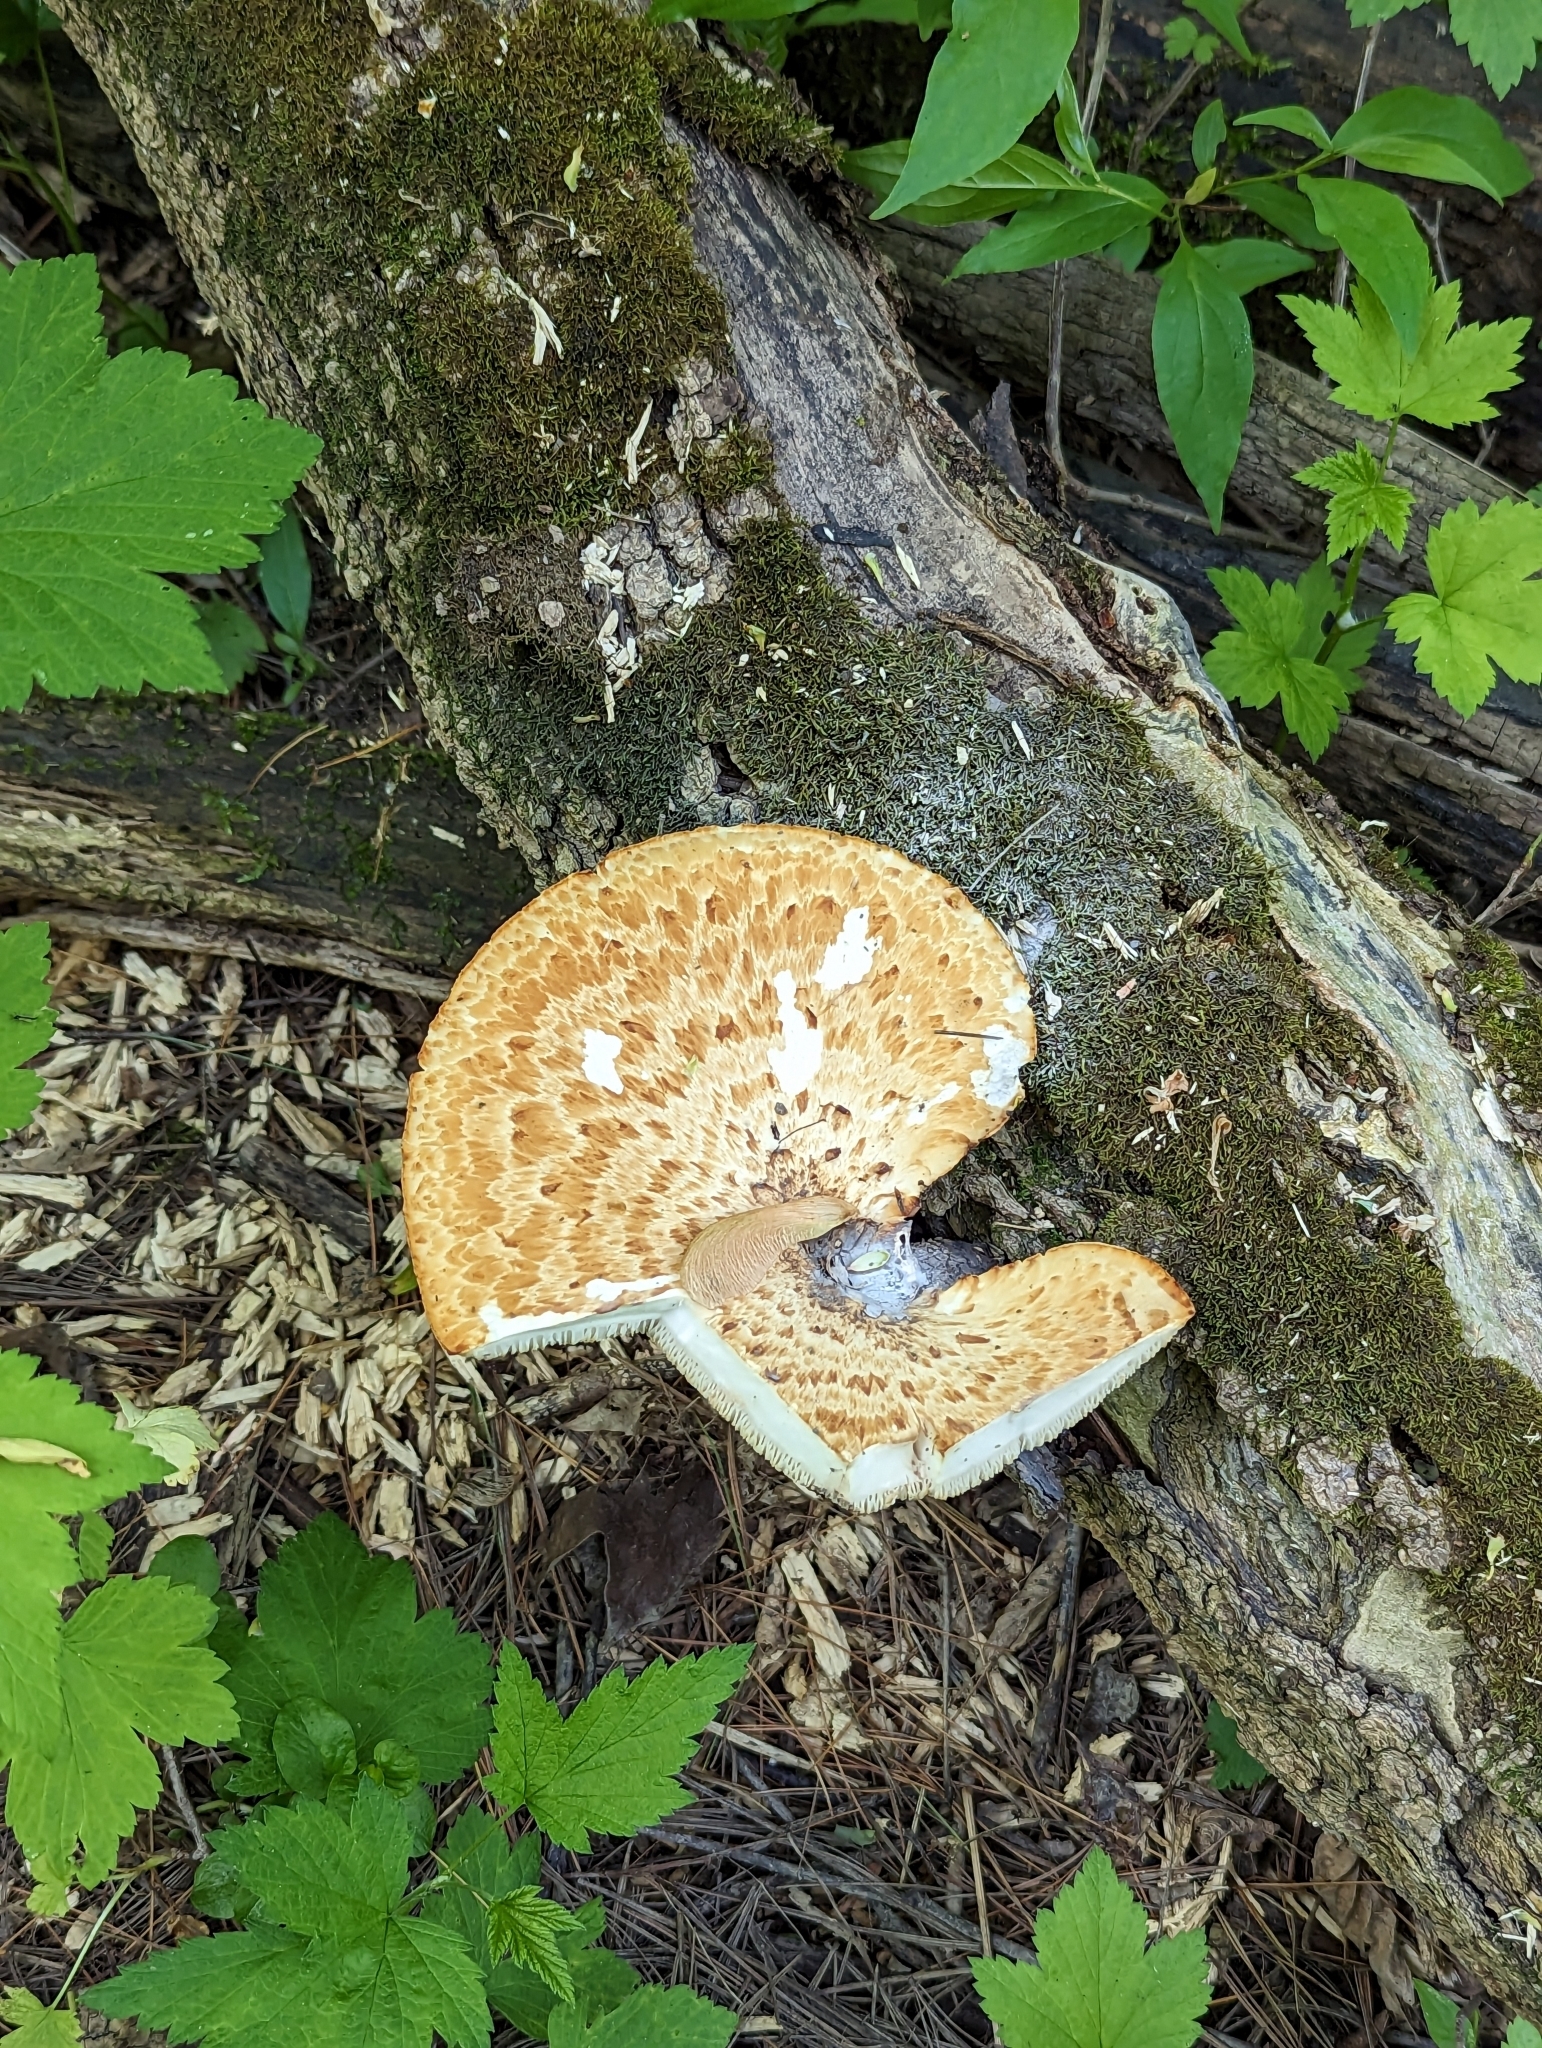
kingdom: Fungi
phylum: Basidiomycota
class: Agaricomycetes
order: Polyporales
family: Polyporaceae
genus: Cerioporus
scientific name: Cerioporus squamosus
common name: Dryad's saddle
